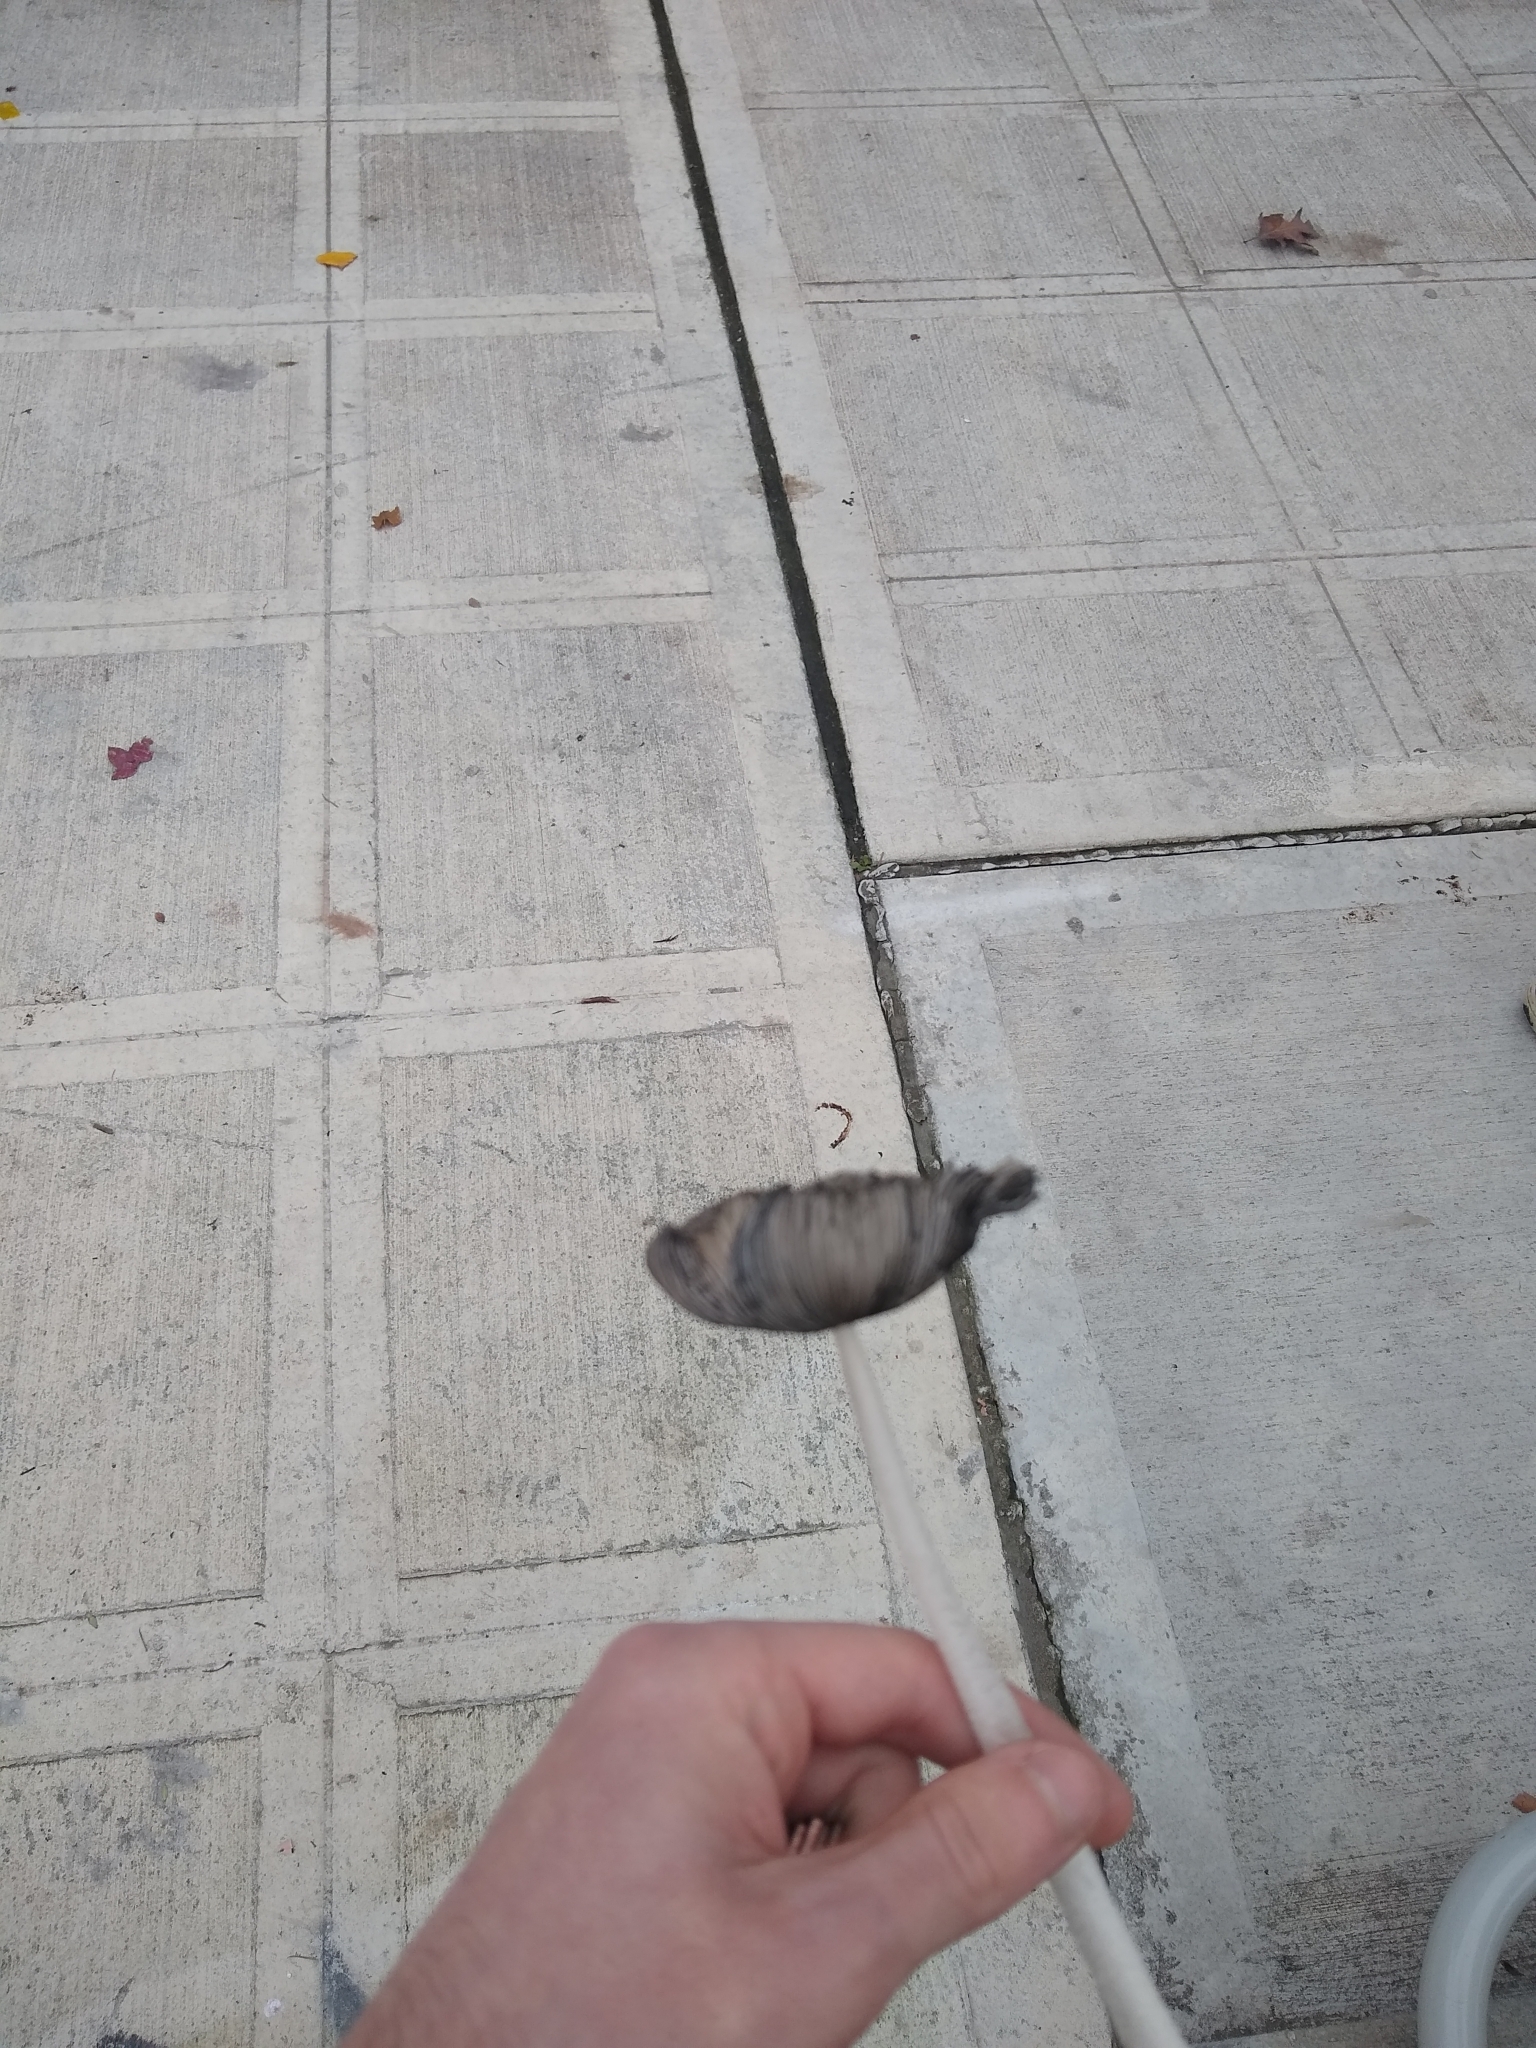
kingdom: Fungi
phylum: Basidiomycota
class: Agaricomycetes
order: Agaricales
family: Psathyrellaceae
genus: Coprinopsis
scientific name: Coprinopsis lagopus
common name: Hare'sfoot inkcap
